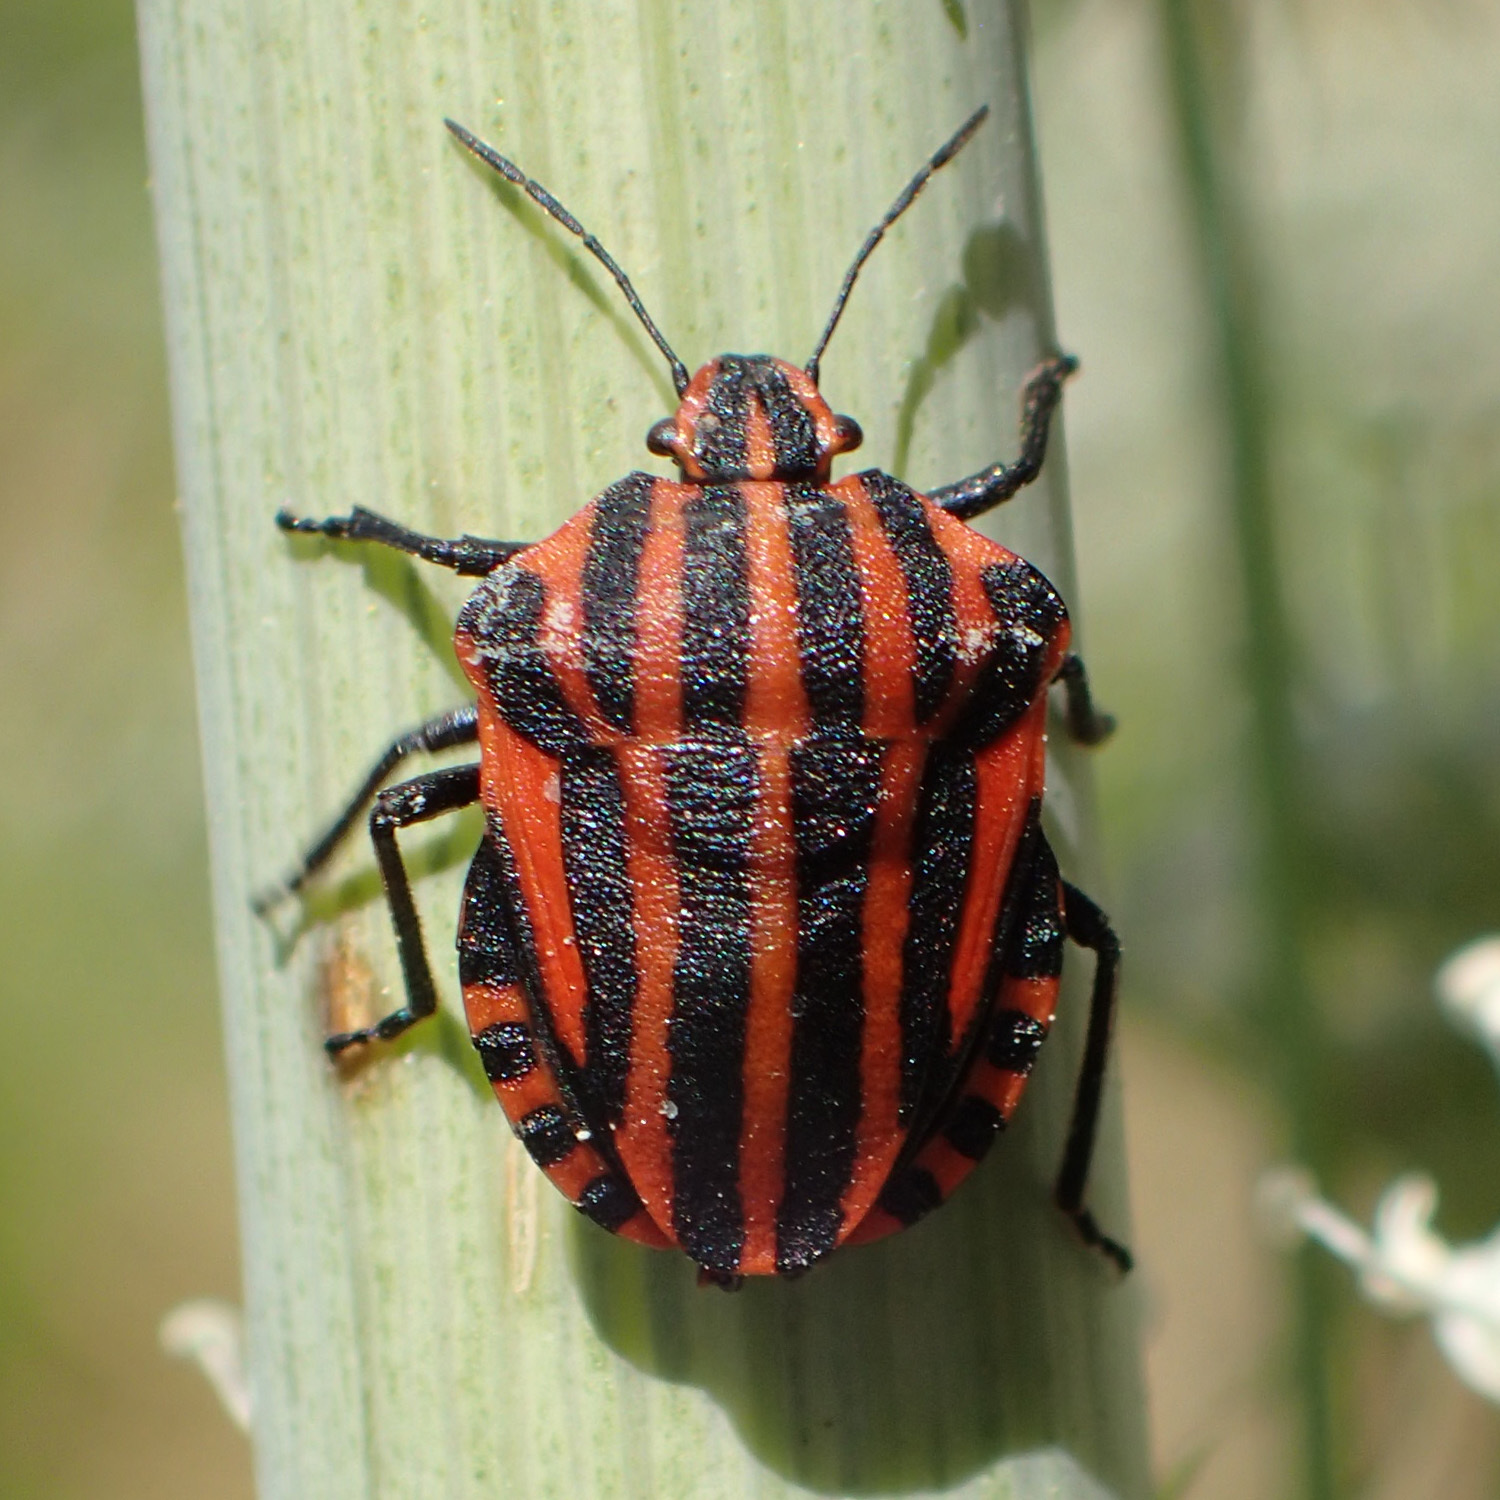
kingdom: Animalia
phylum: Arthropoda
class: Insecta
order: Hemiptera
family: Pentatomidae
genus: Graphosoma
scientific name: Graphosoma italicum
